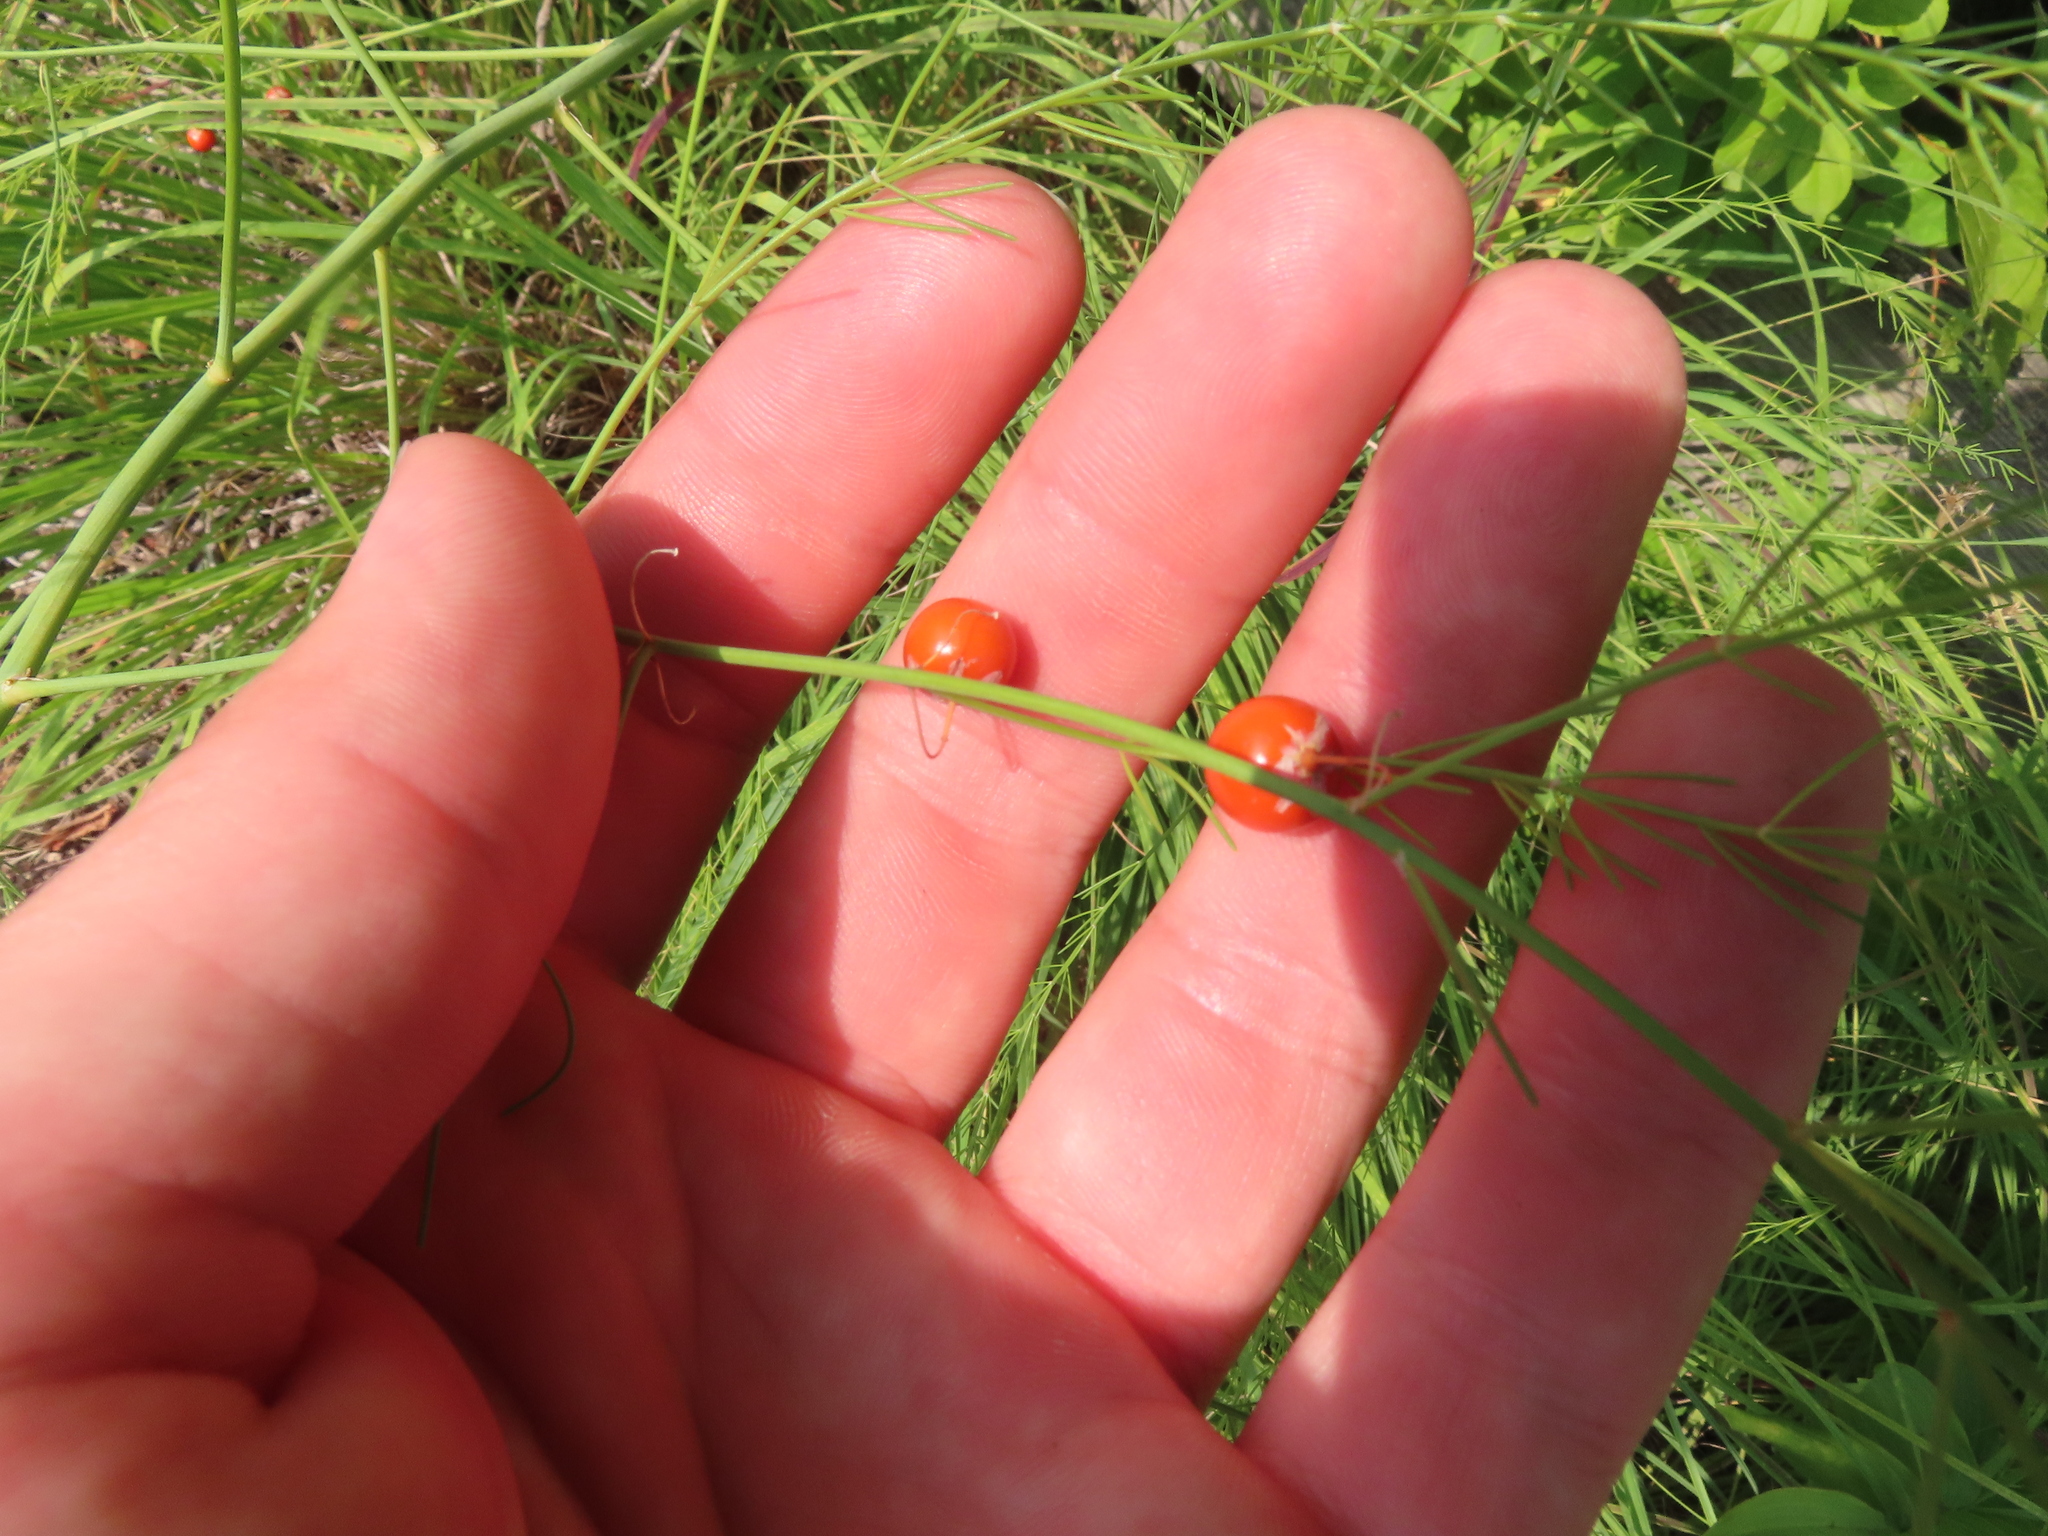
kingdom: Plantae
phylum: Tracheophyta
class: Liliopsida
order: Asparagales
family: Asparagaceae
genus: Asparagus
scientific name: Asparagus officinalis
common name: Garden asparagus
